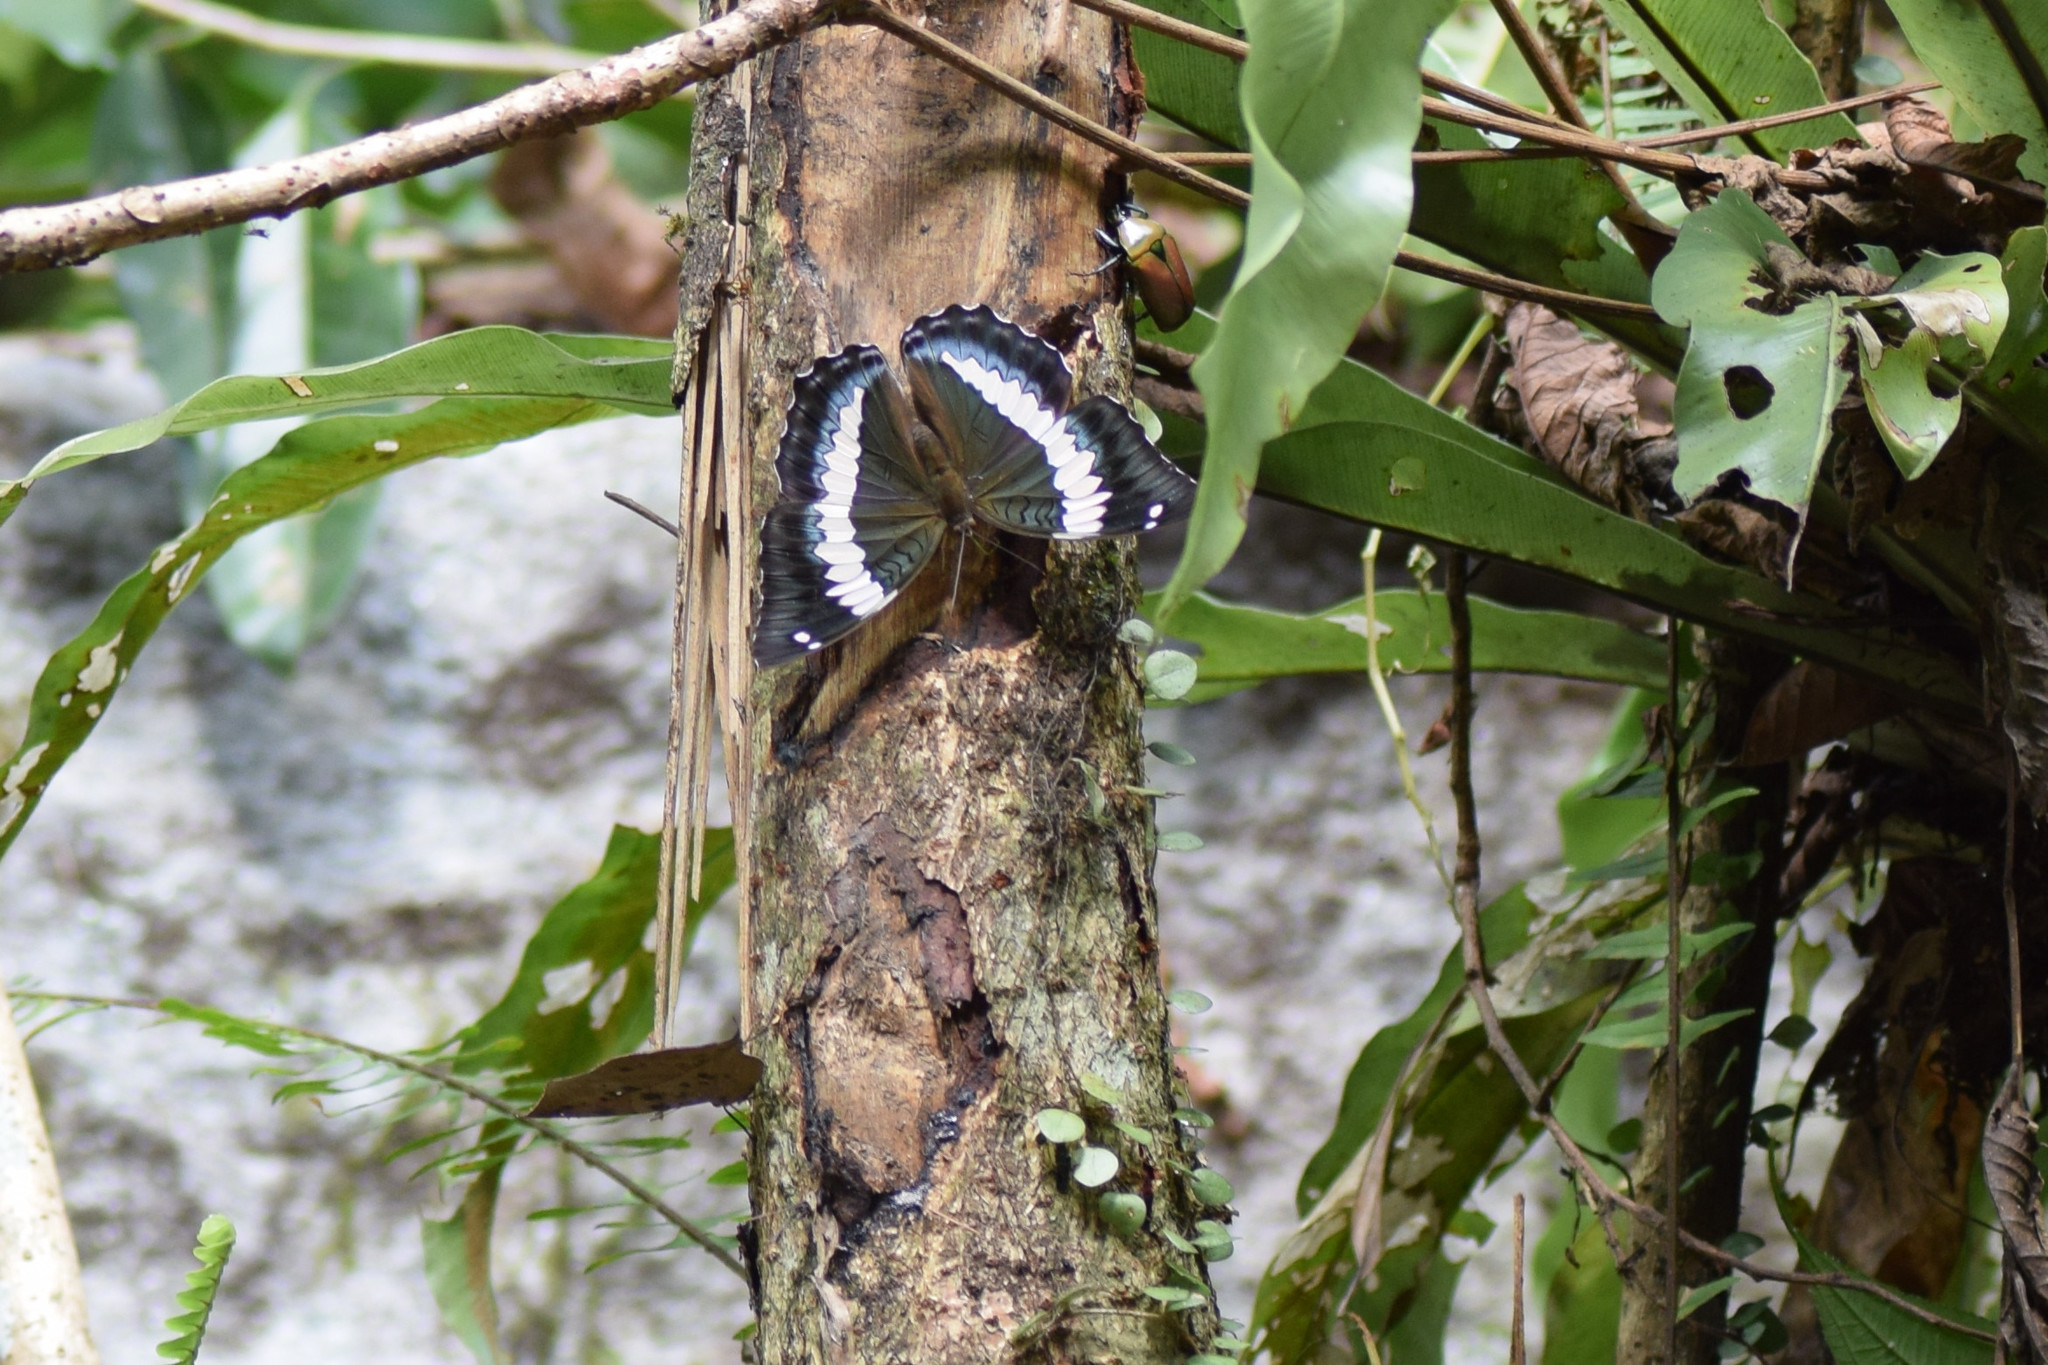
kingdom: Animalia
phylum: Arthropoda
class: Insecta
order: Lepidoptera
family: Nymphalidae
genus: Euthalia
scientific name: Euthalia durga
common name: Blue duke
